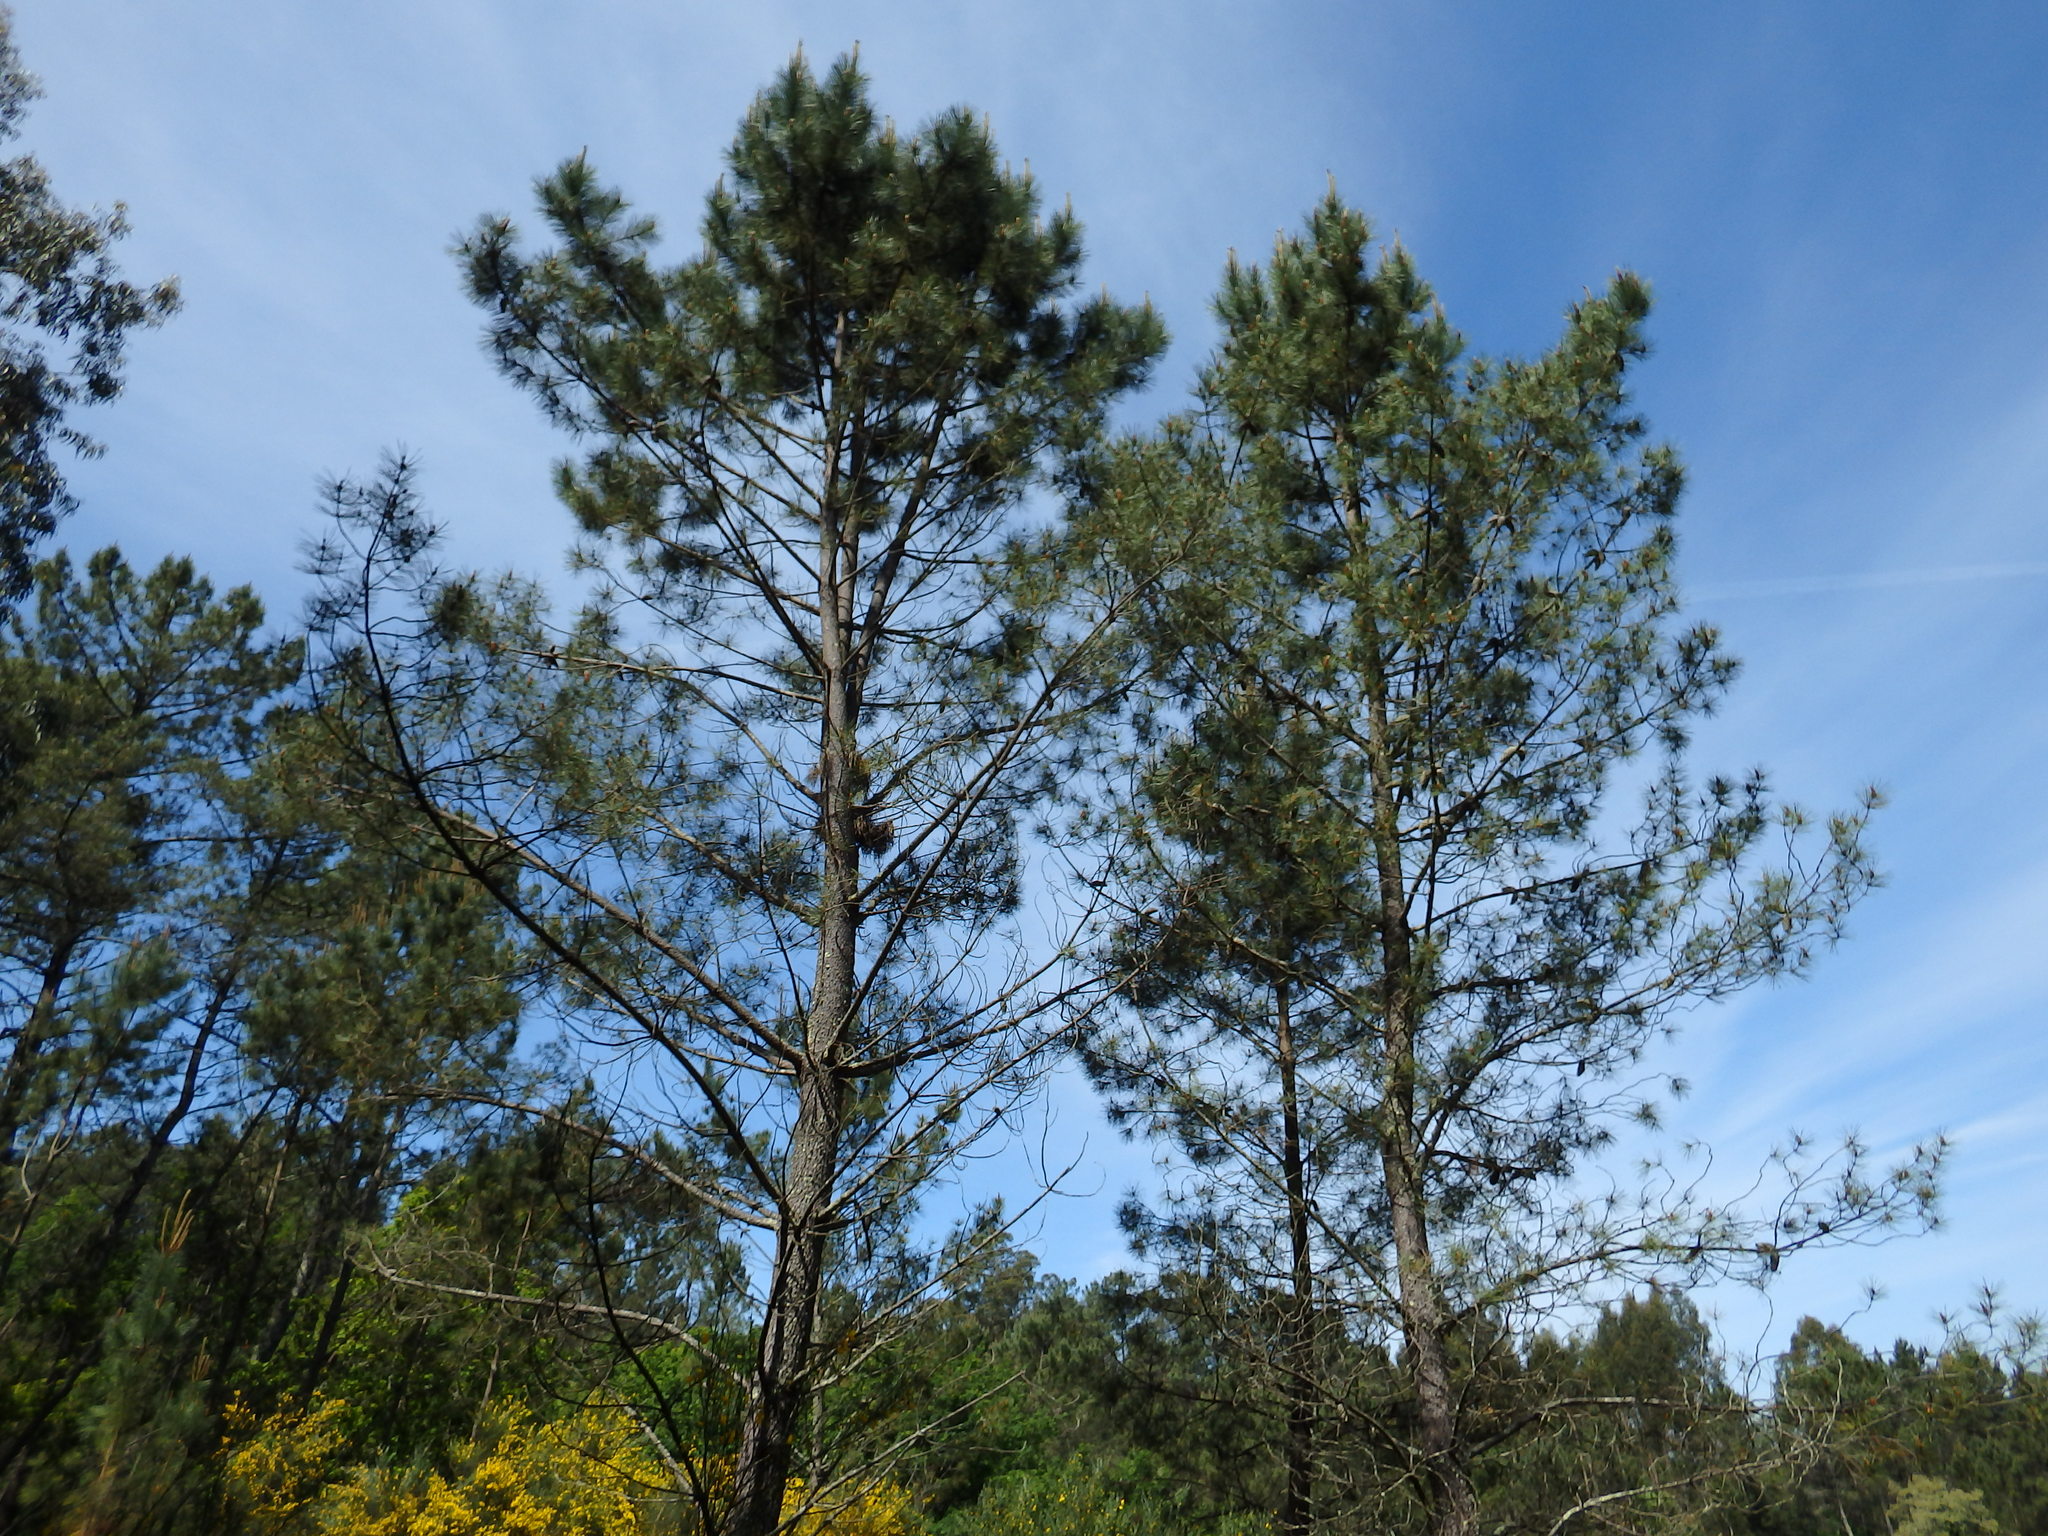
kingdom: Plantae
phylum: Tracheophyta
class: Pinopsida
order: Pinales
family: Pinaceae
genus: Pinus
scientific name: Pinus pinaster
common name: Maritime pine
